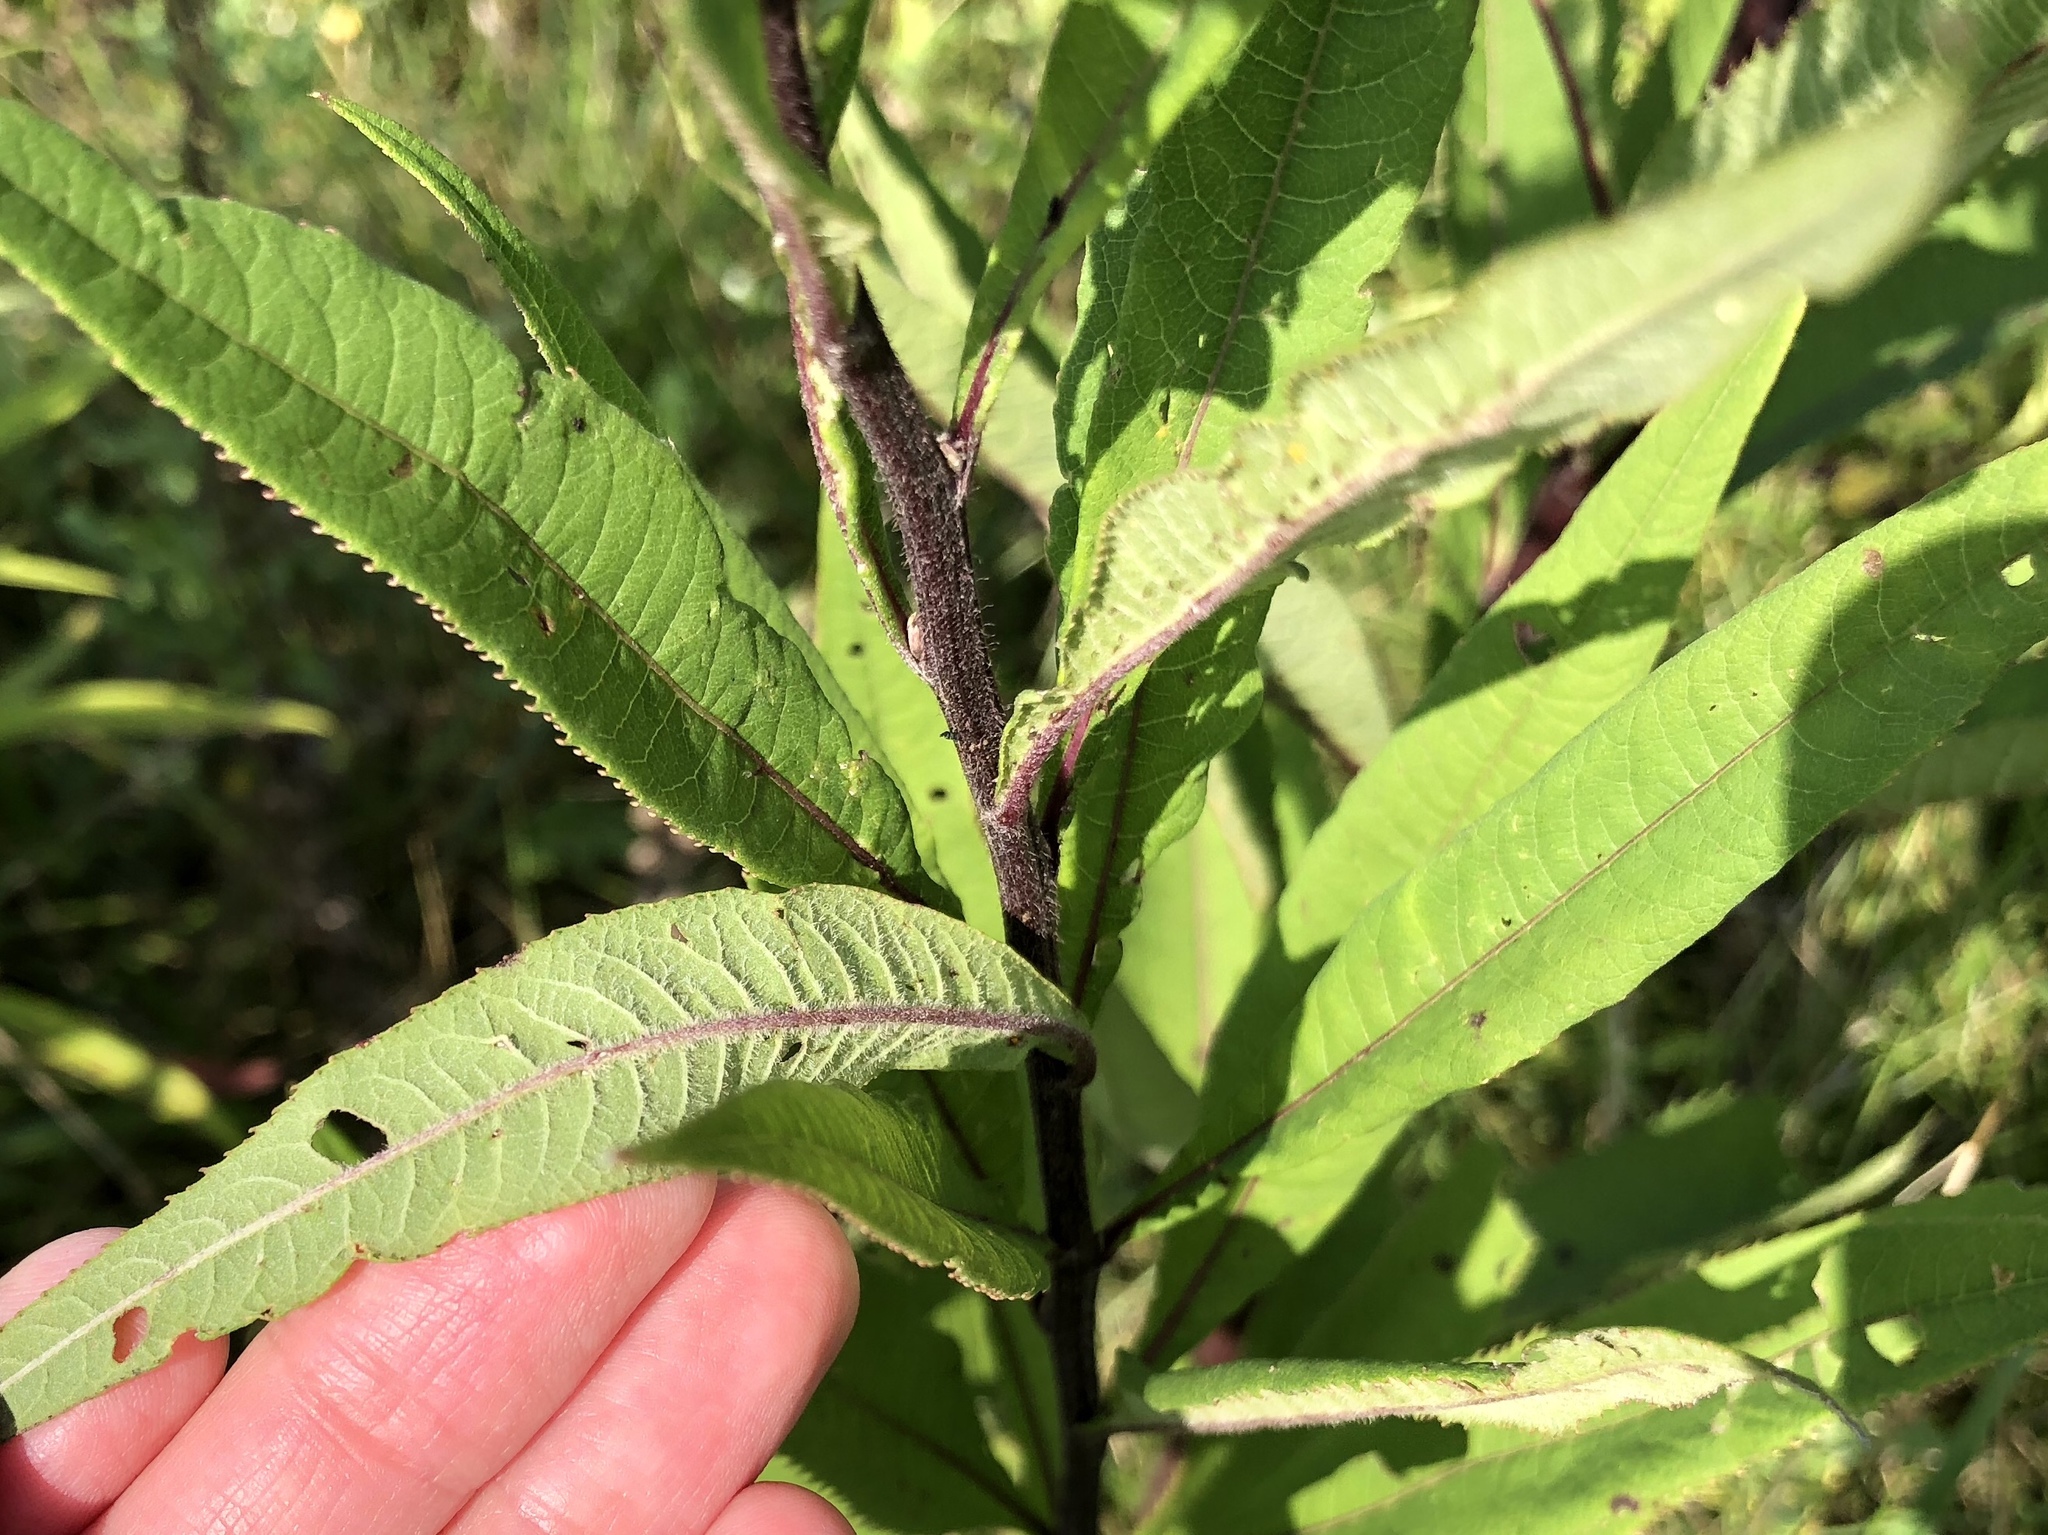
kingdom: Plantae
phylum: Tracheophyta
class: Magnoliopsida
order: Asterales
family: Asteraceae
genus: Vernonia
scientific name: Vernonia gigantea
